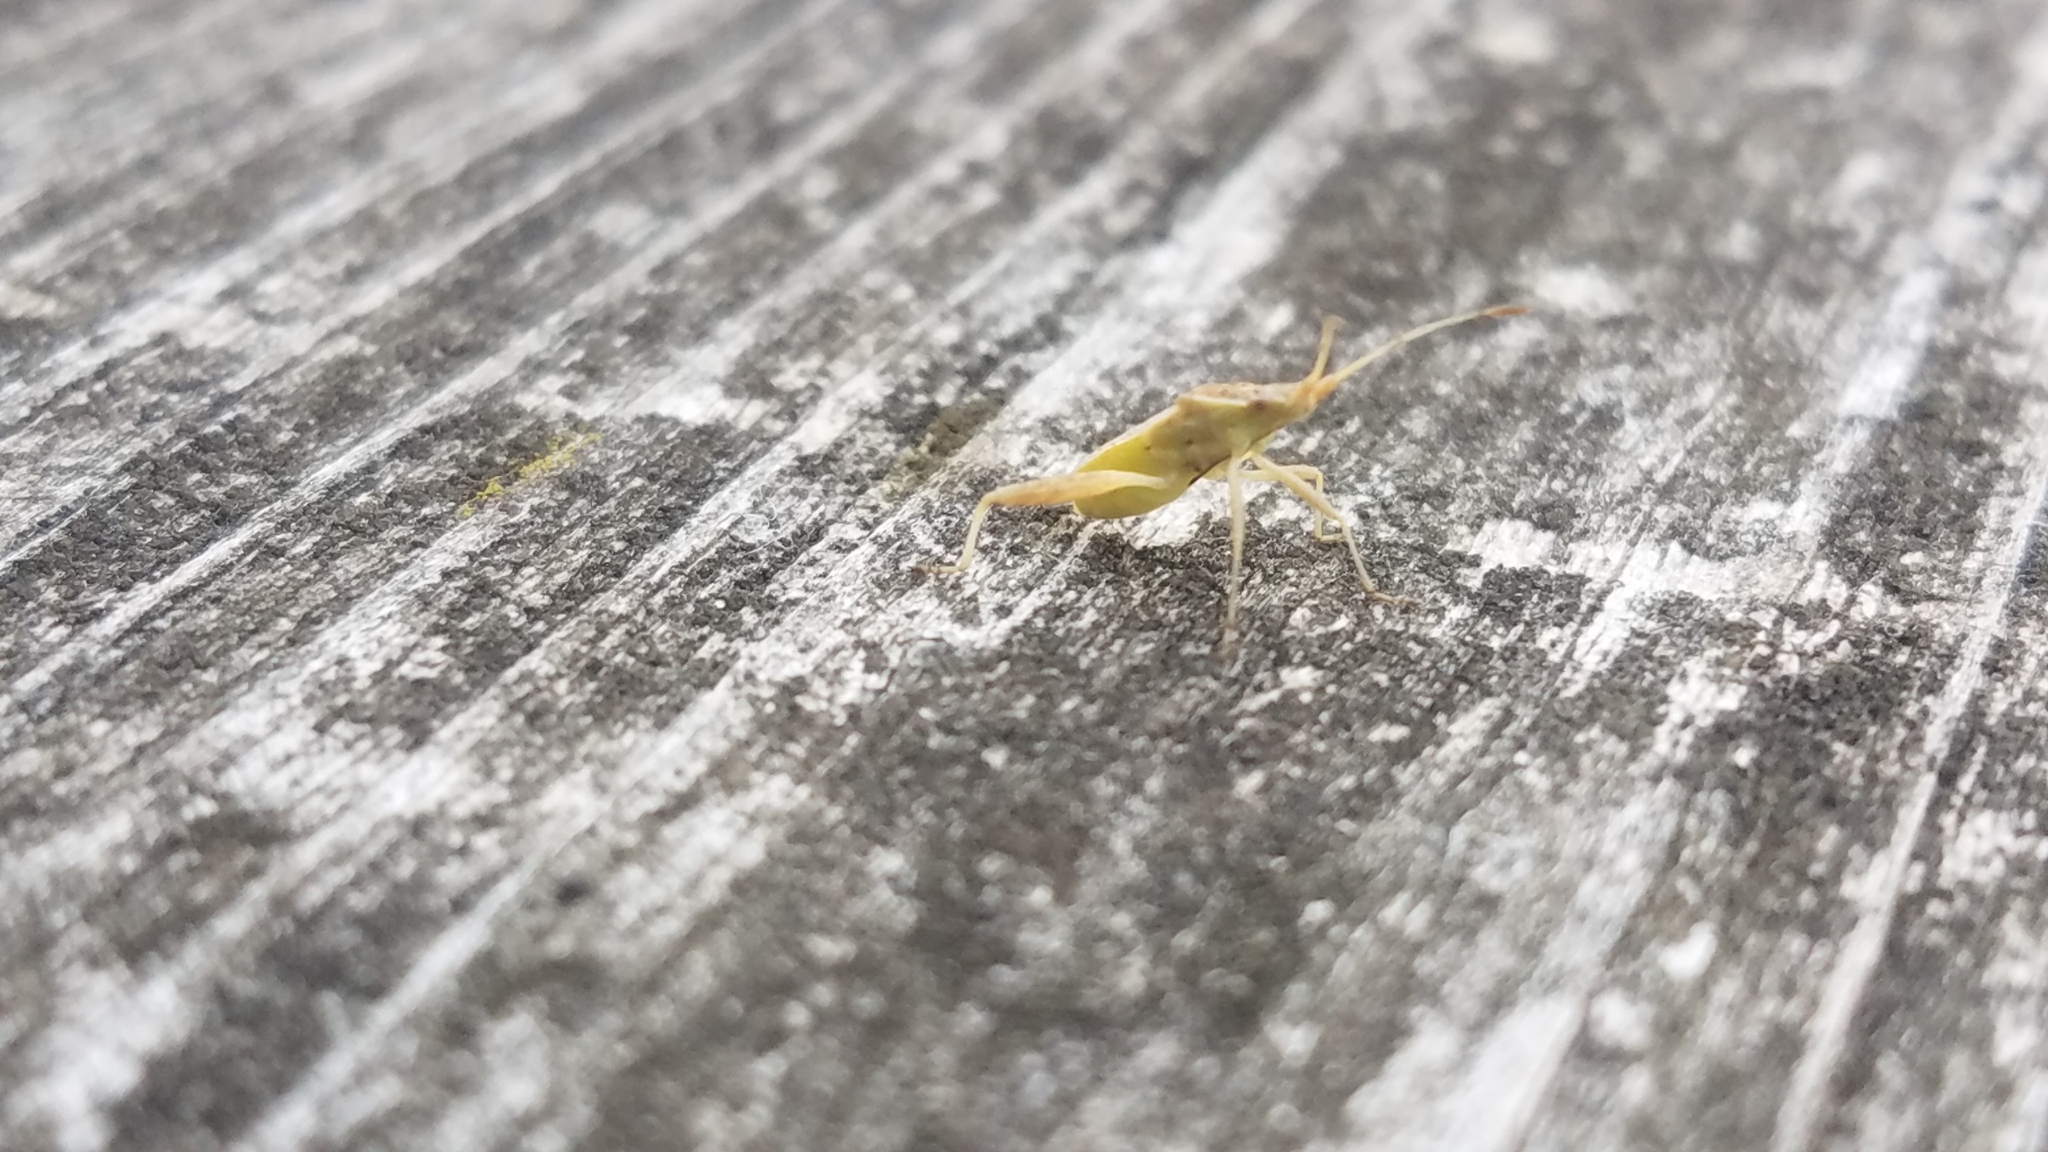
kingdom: Animalia
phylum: Arthropoda
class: Insecta
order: Hemiptera
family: Rhopalidae
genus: Harmostes
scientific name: Harmostes reflexulus
